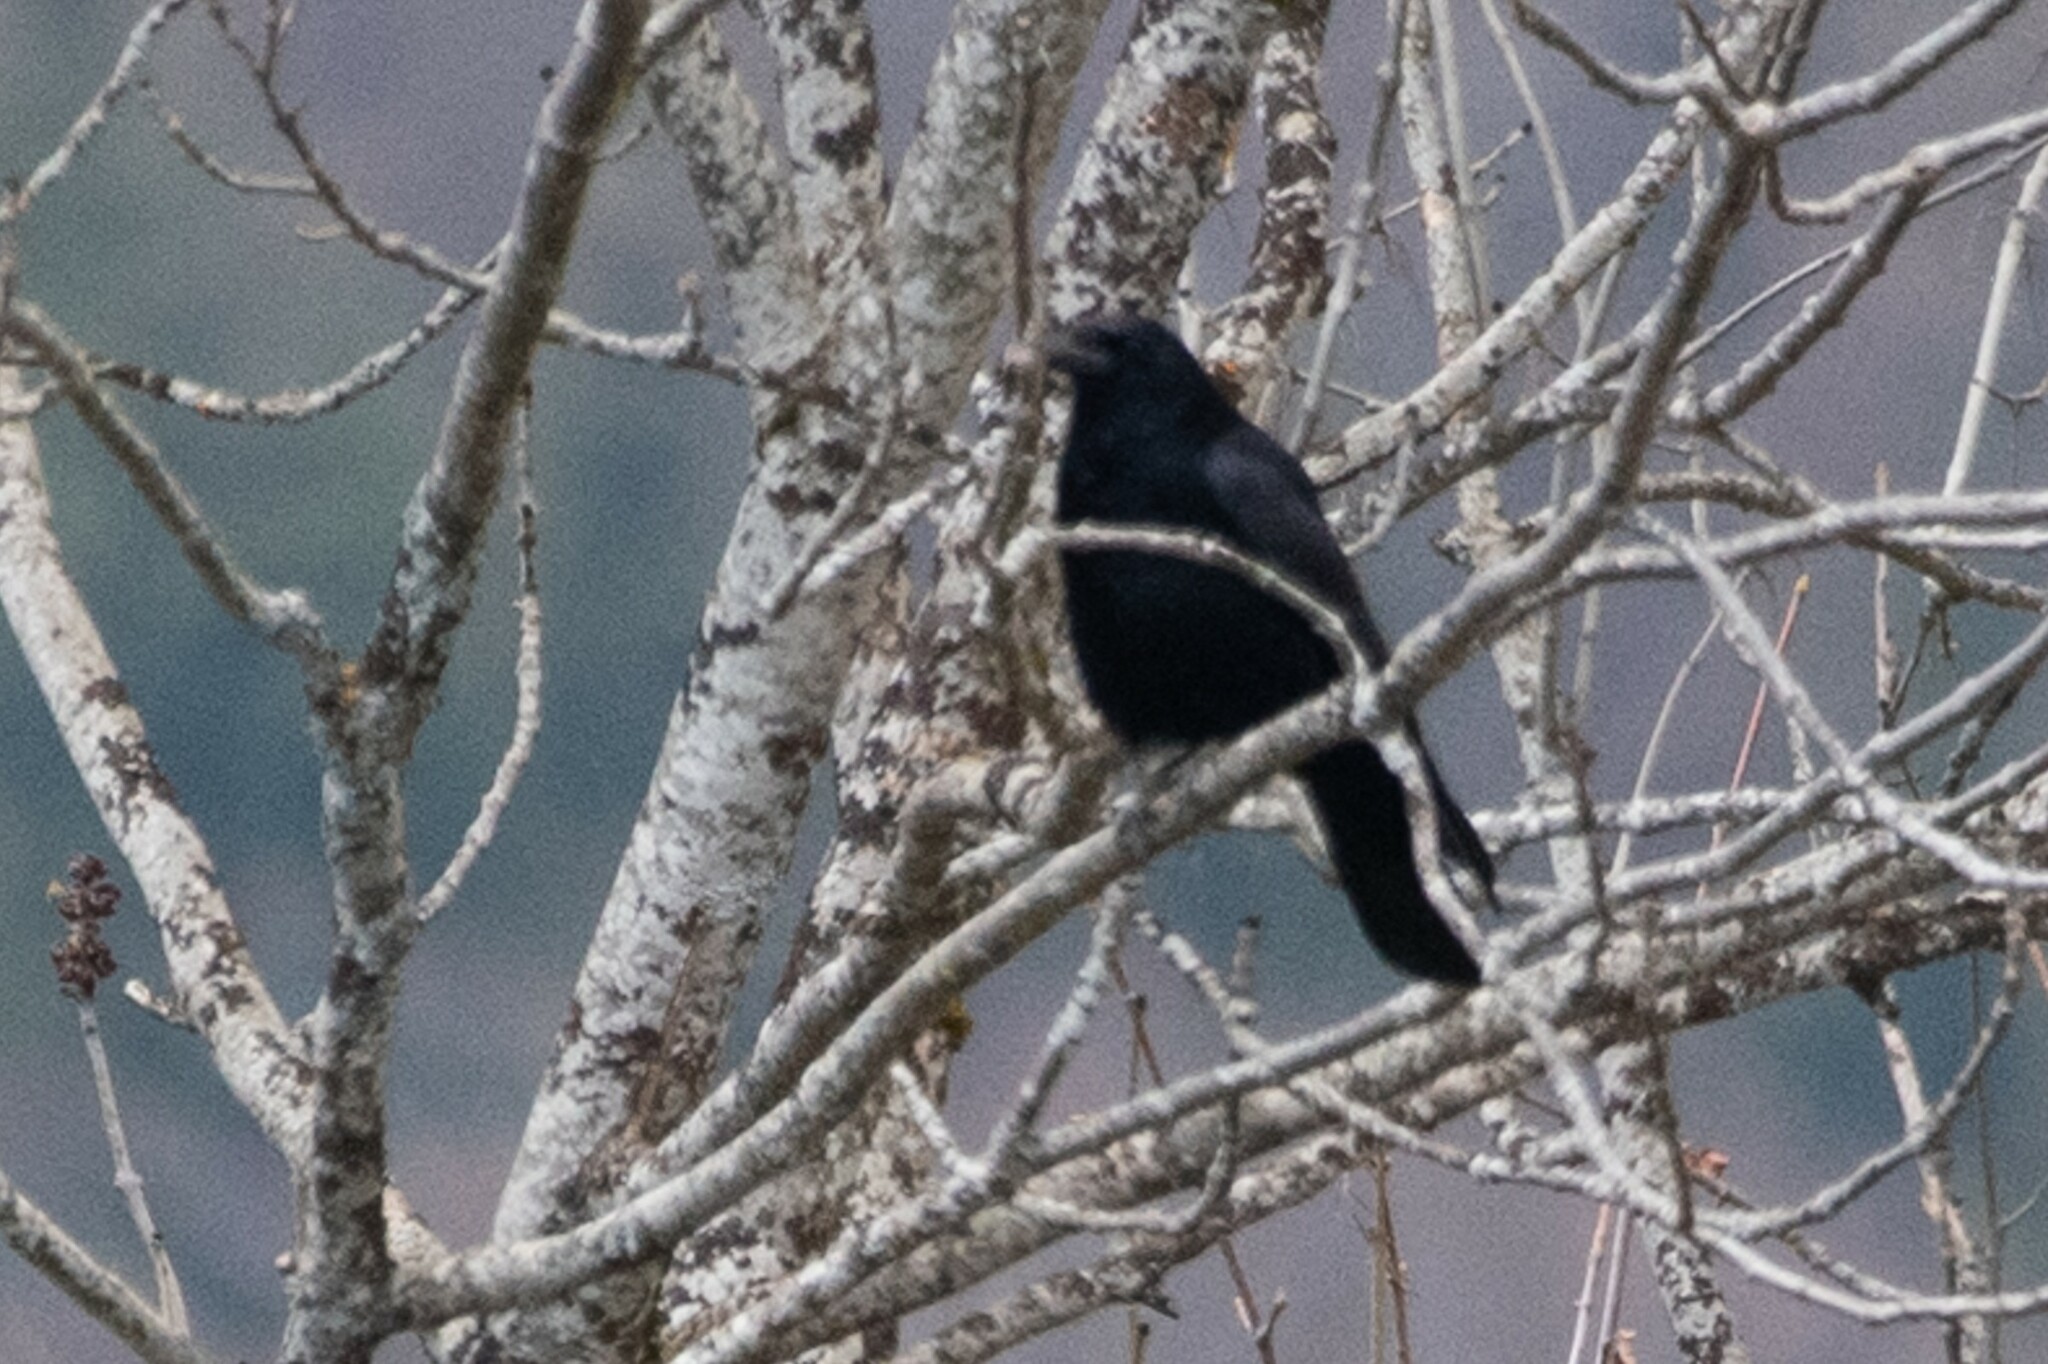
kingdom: Animalia
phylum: Chordata
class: Aves
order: Passeriformes
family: Corvidae
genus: Corvus
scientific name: Corvus corone
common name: Carrion crow
